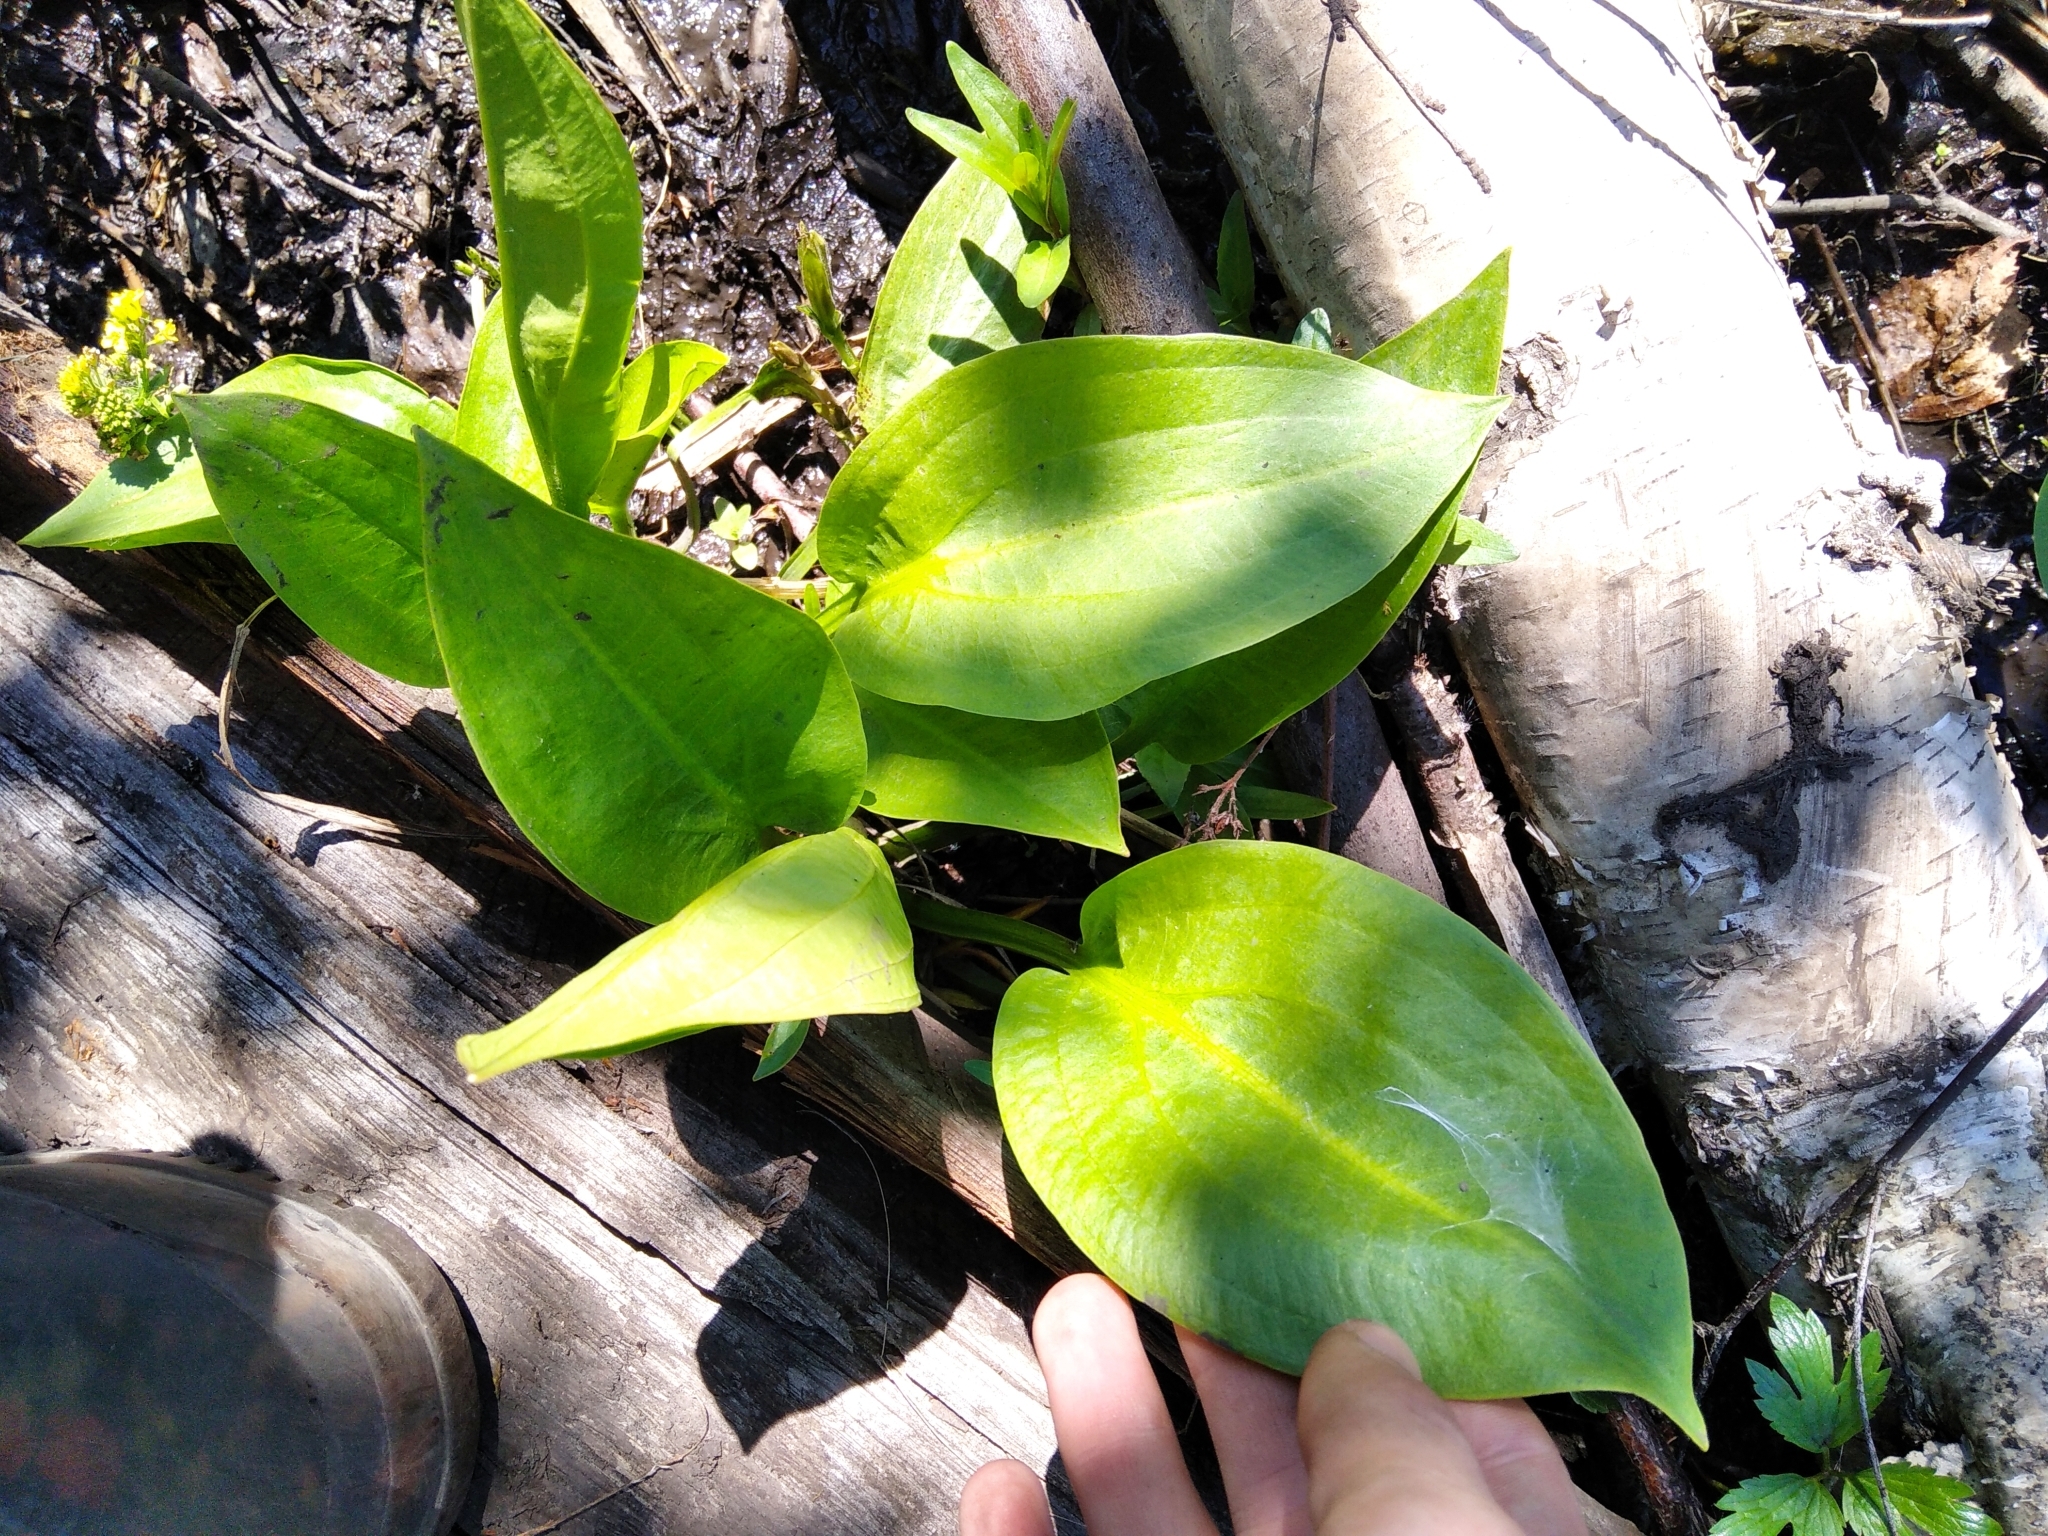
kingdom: Plantae
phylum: Tracheophyta
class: Liliopsida
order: Alismatales
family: Alismataceae
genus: Alisma
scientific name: Alisma plantago-aquatica
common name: Water-plantain
